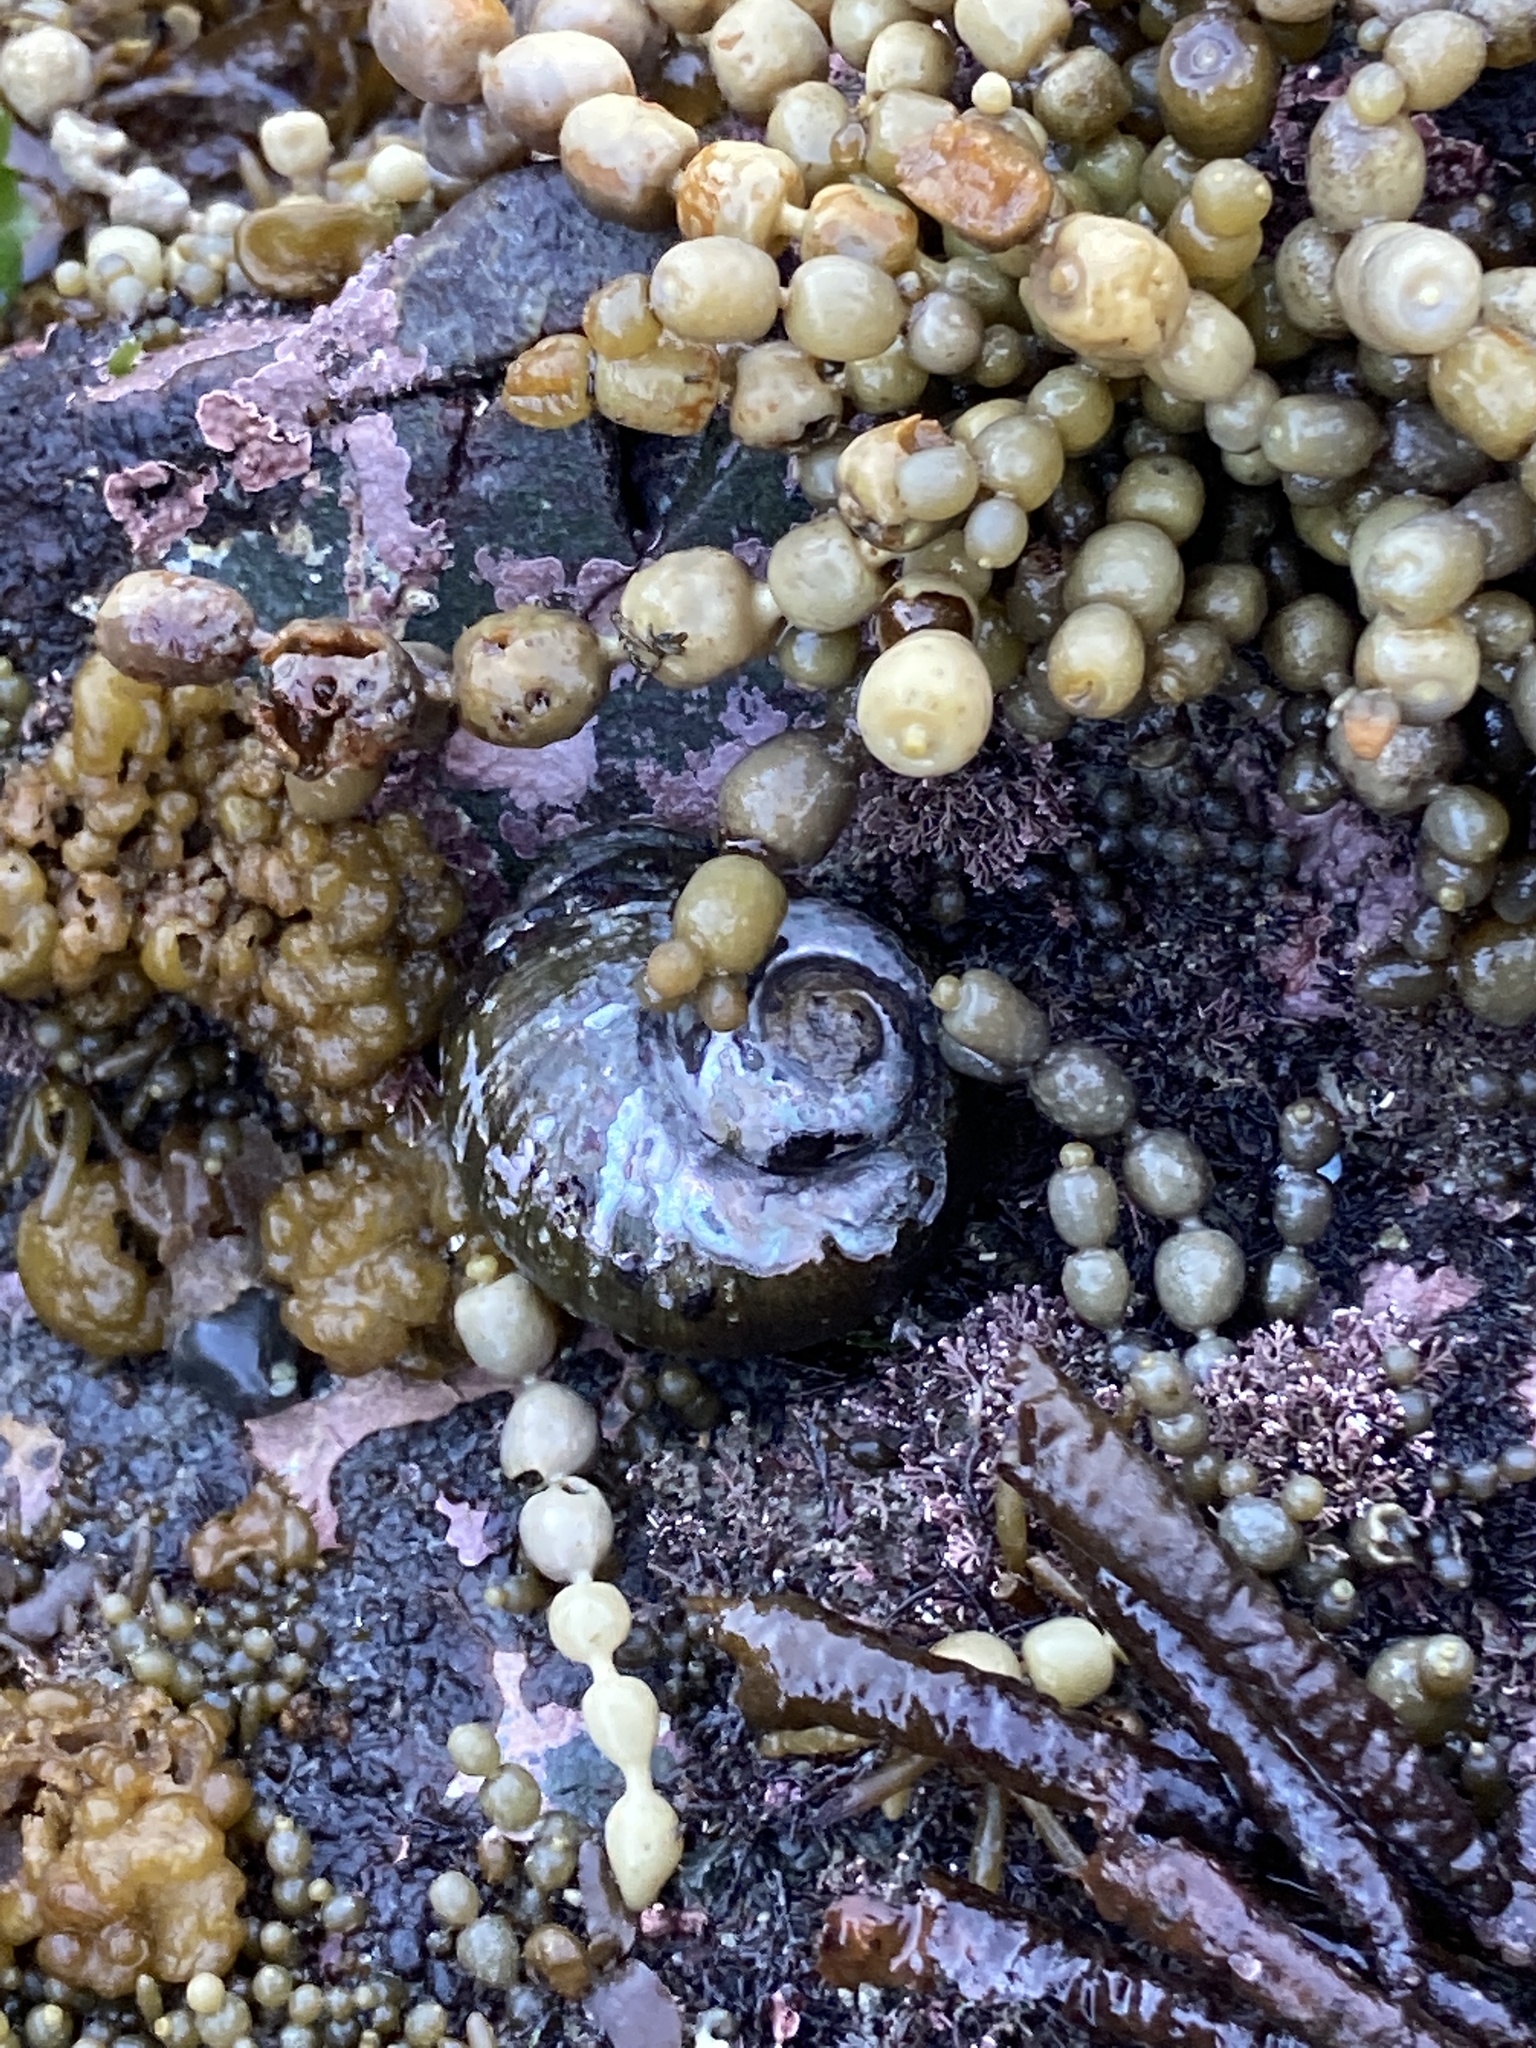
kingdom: Animalia
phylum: Mollusca
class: Gastropoda
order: Trochida
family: Turbinidae
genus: Lunella
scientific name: Lunella smaragda
